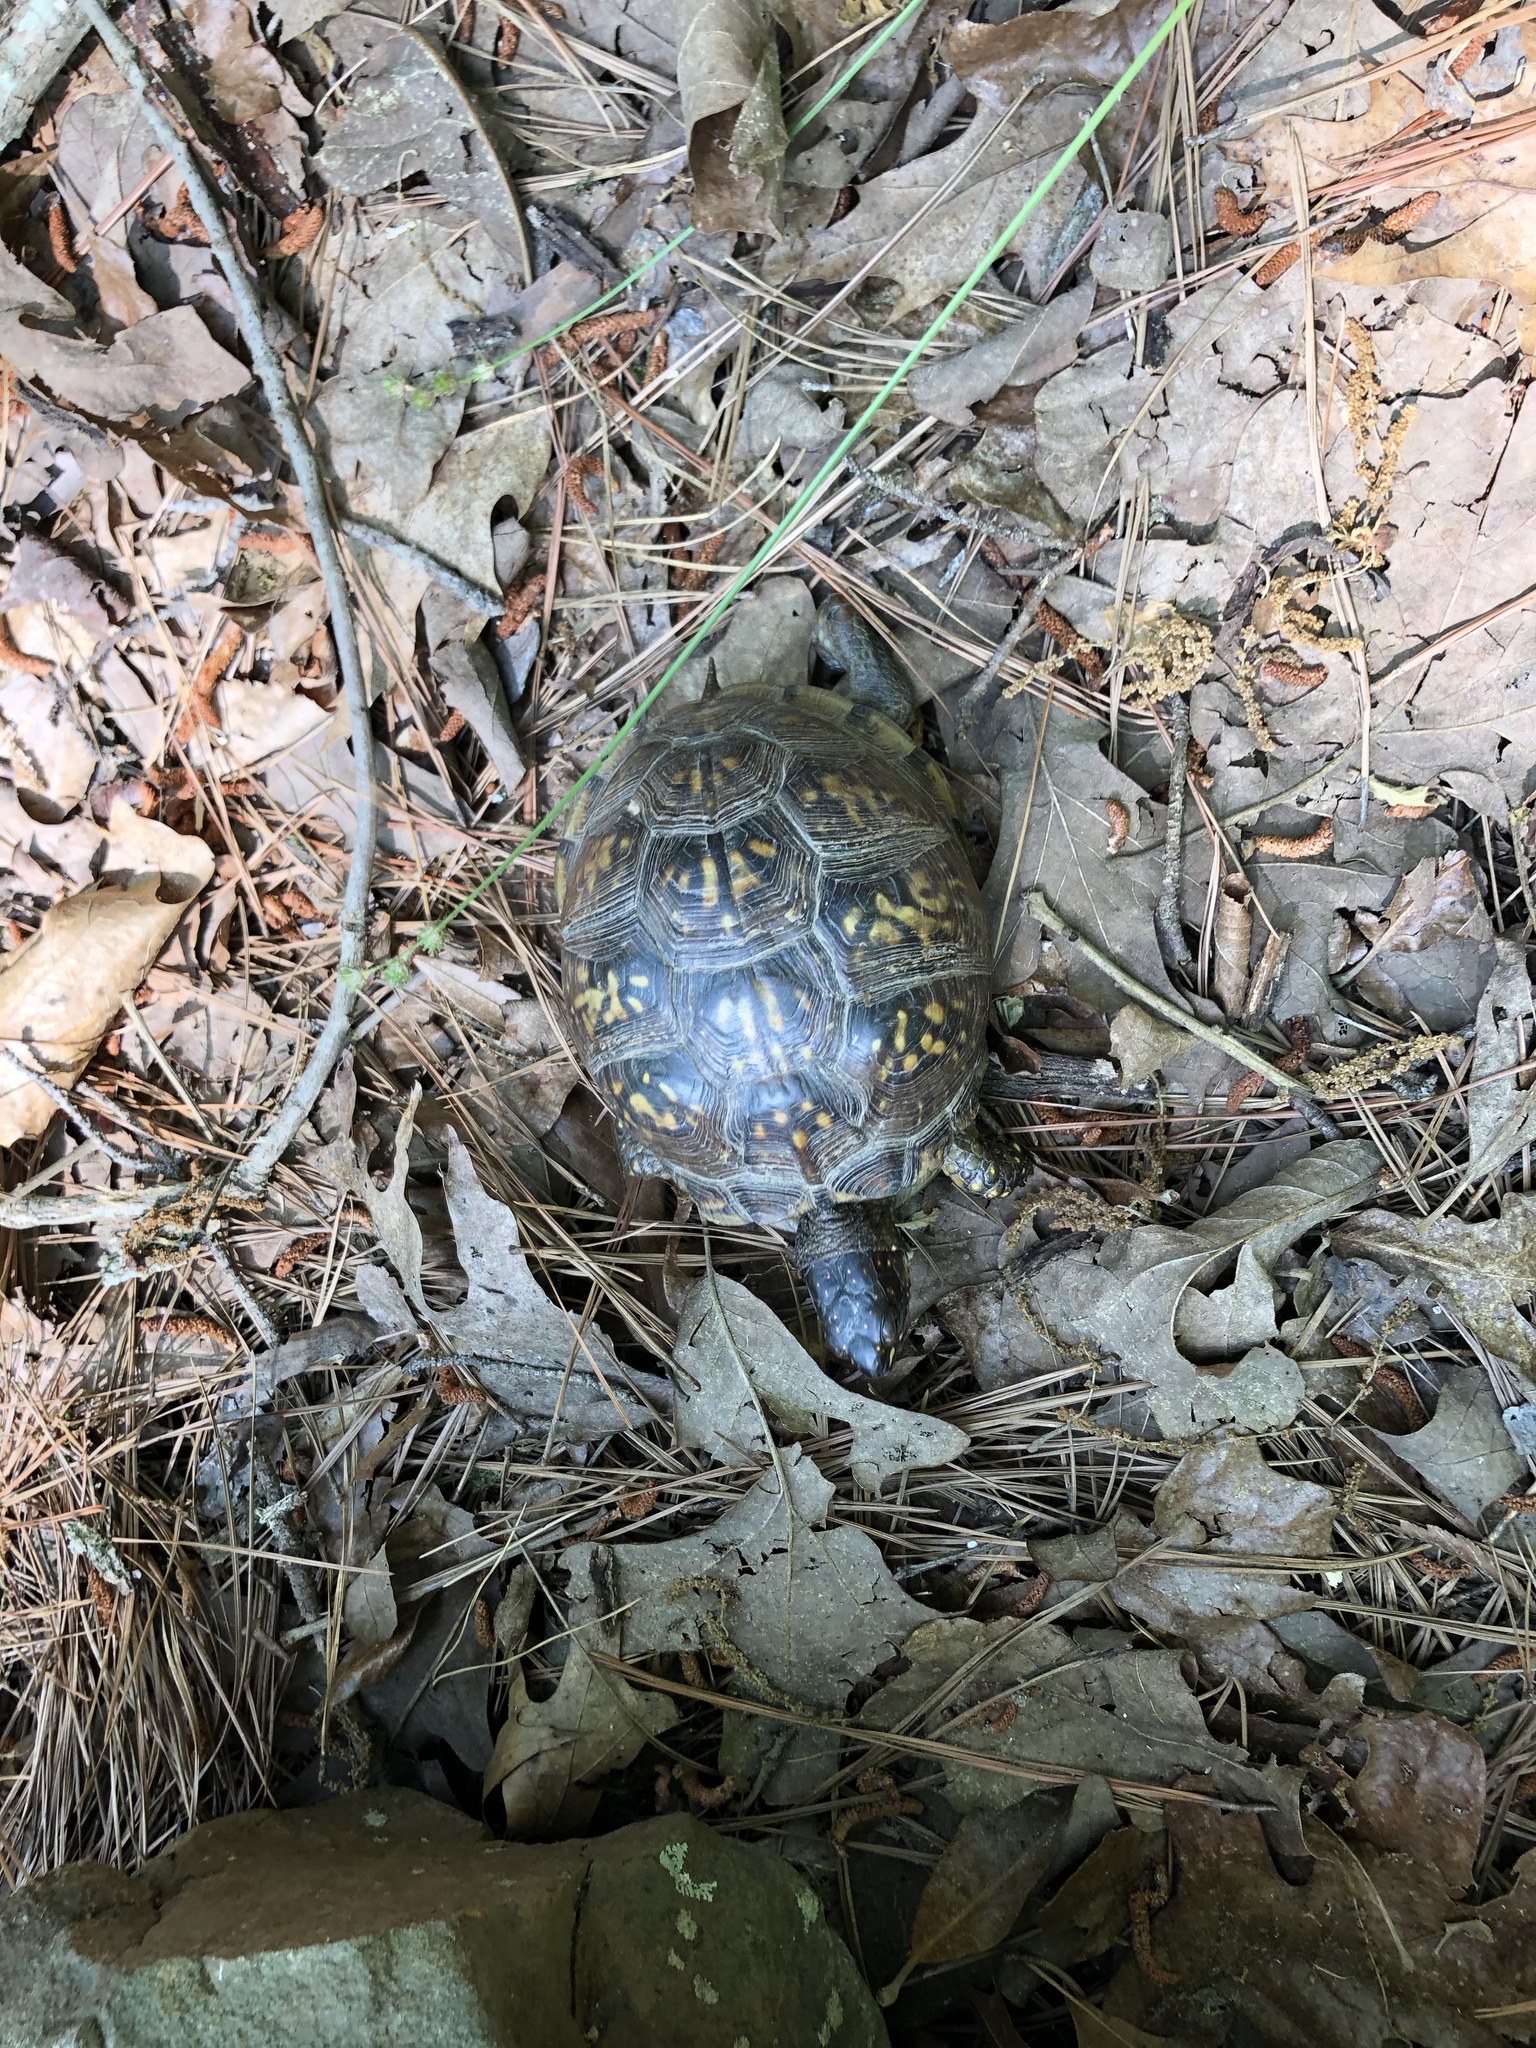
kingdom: Animalia
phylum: Chordata
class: Testudines
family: Emydidae
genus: Terrapene
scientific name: Terrapene carolina
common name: Common box turtle
